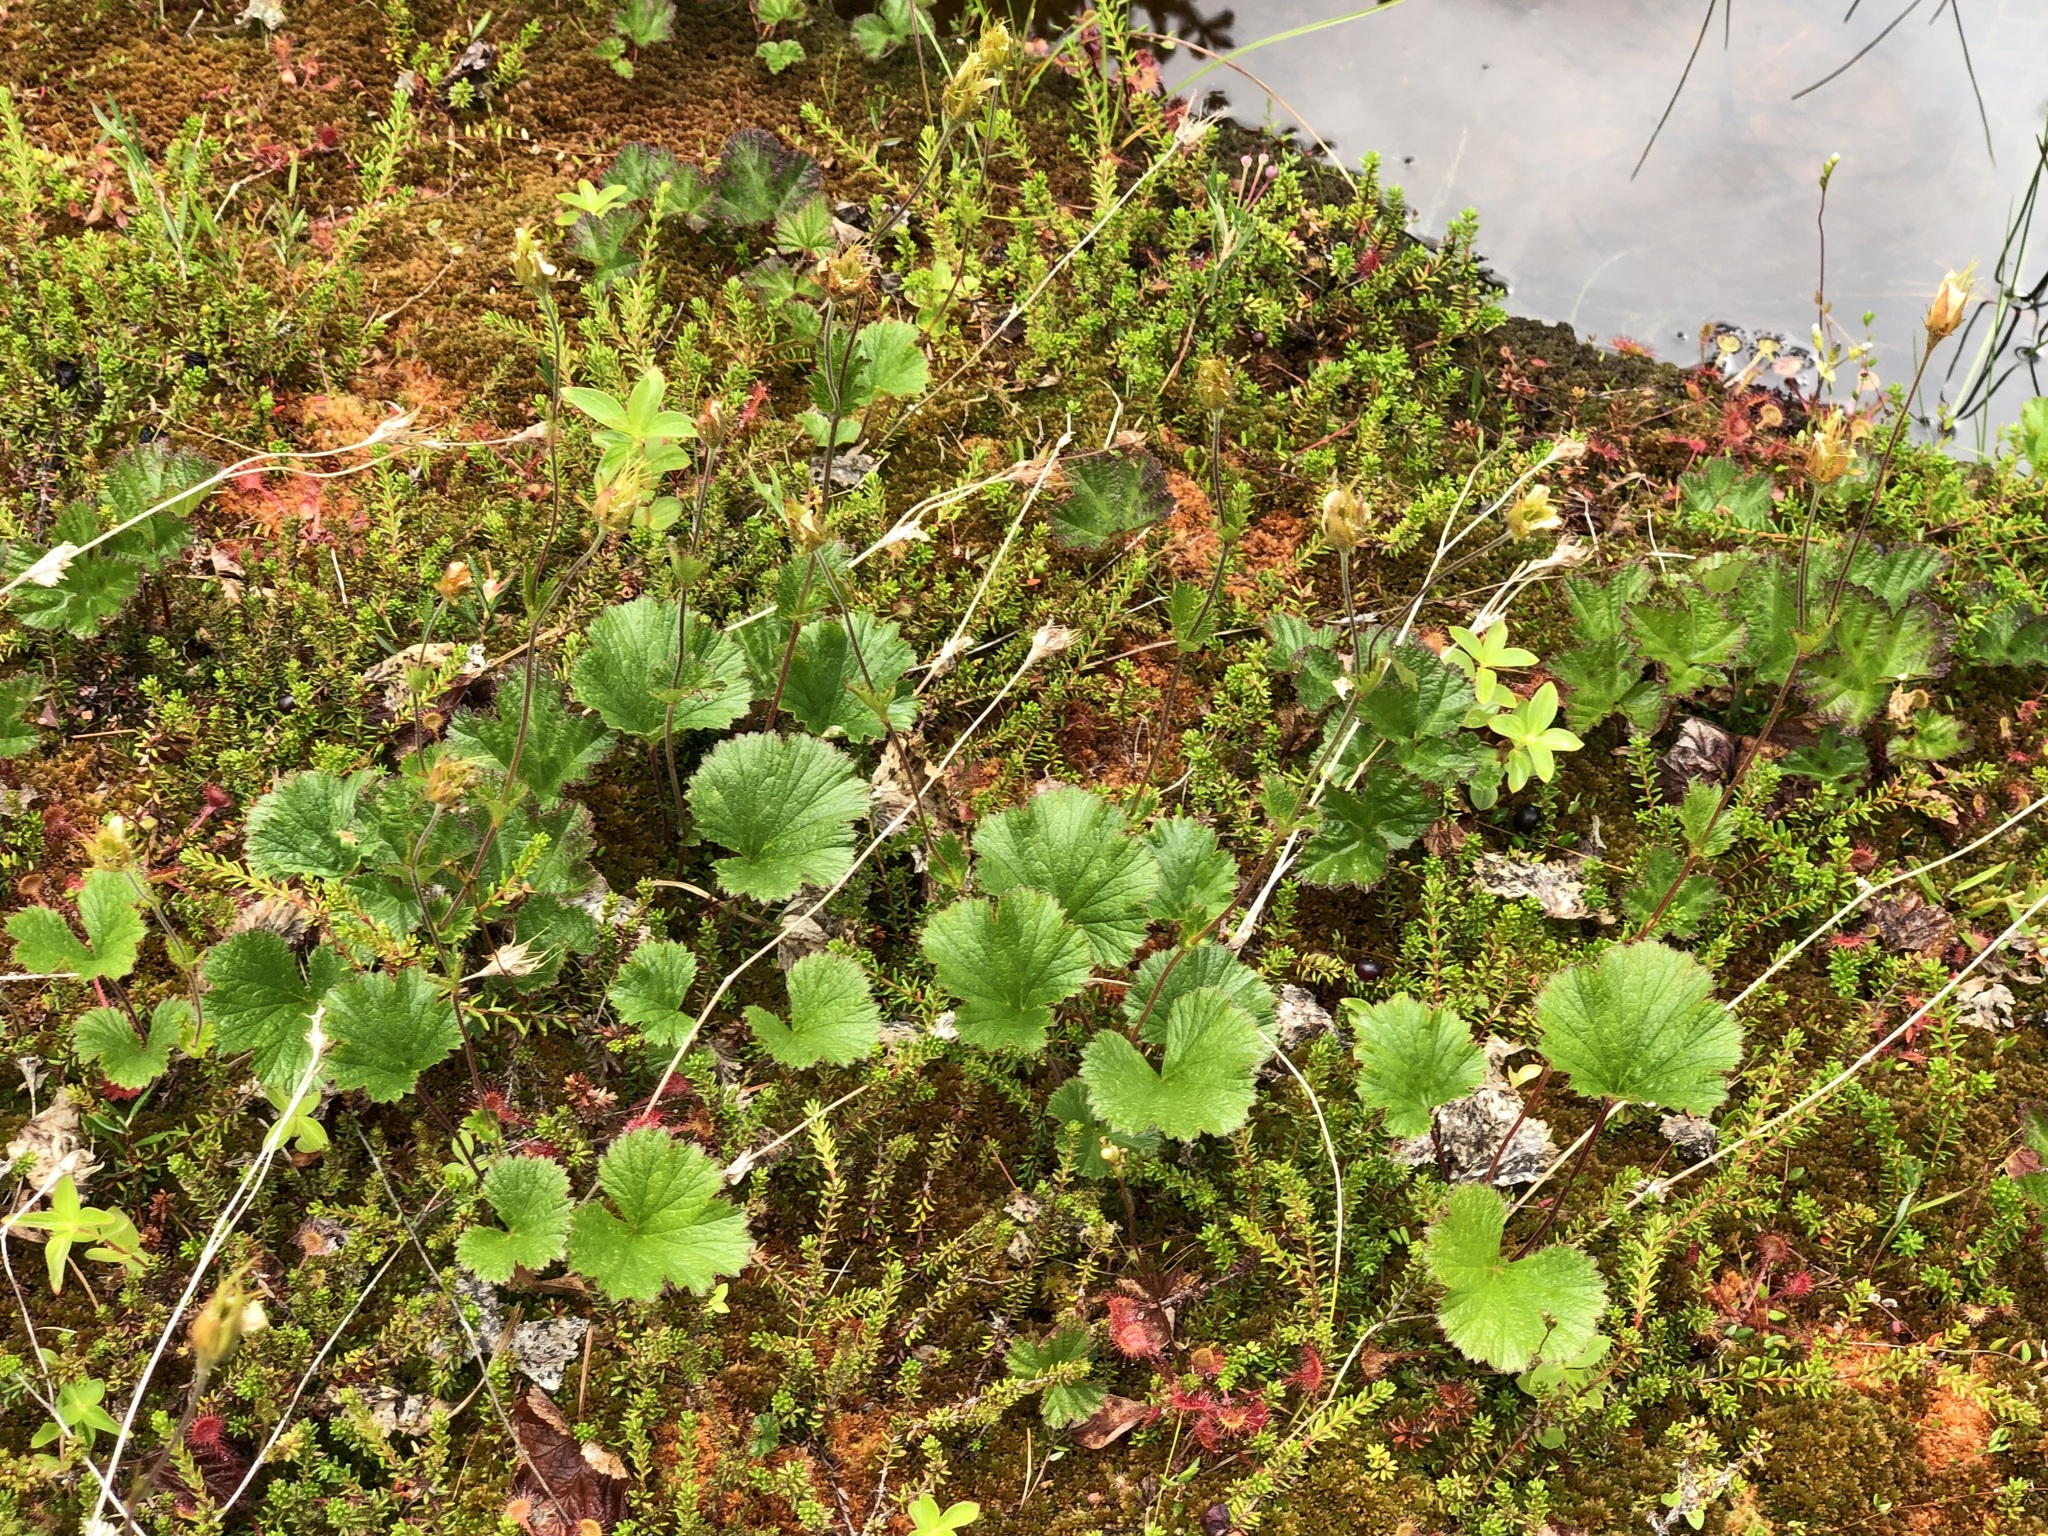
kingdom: Plantae
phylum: Tracheophyta
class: Magnoliopsida
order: Rosales
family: Rosaceae
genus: Geum
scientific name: Geum calthifolium
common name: Caltha-leaved avens
